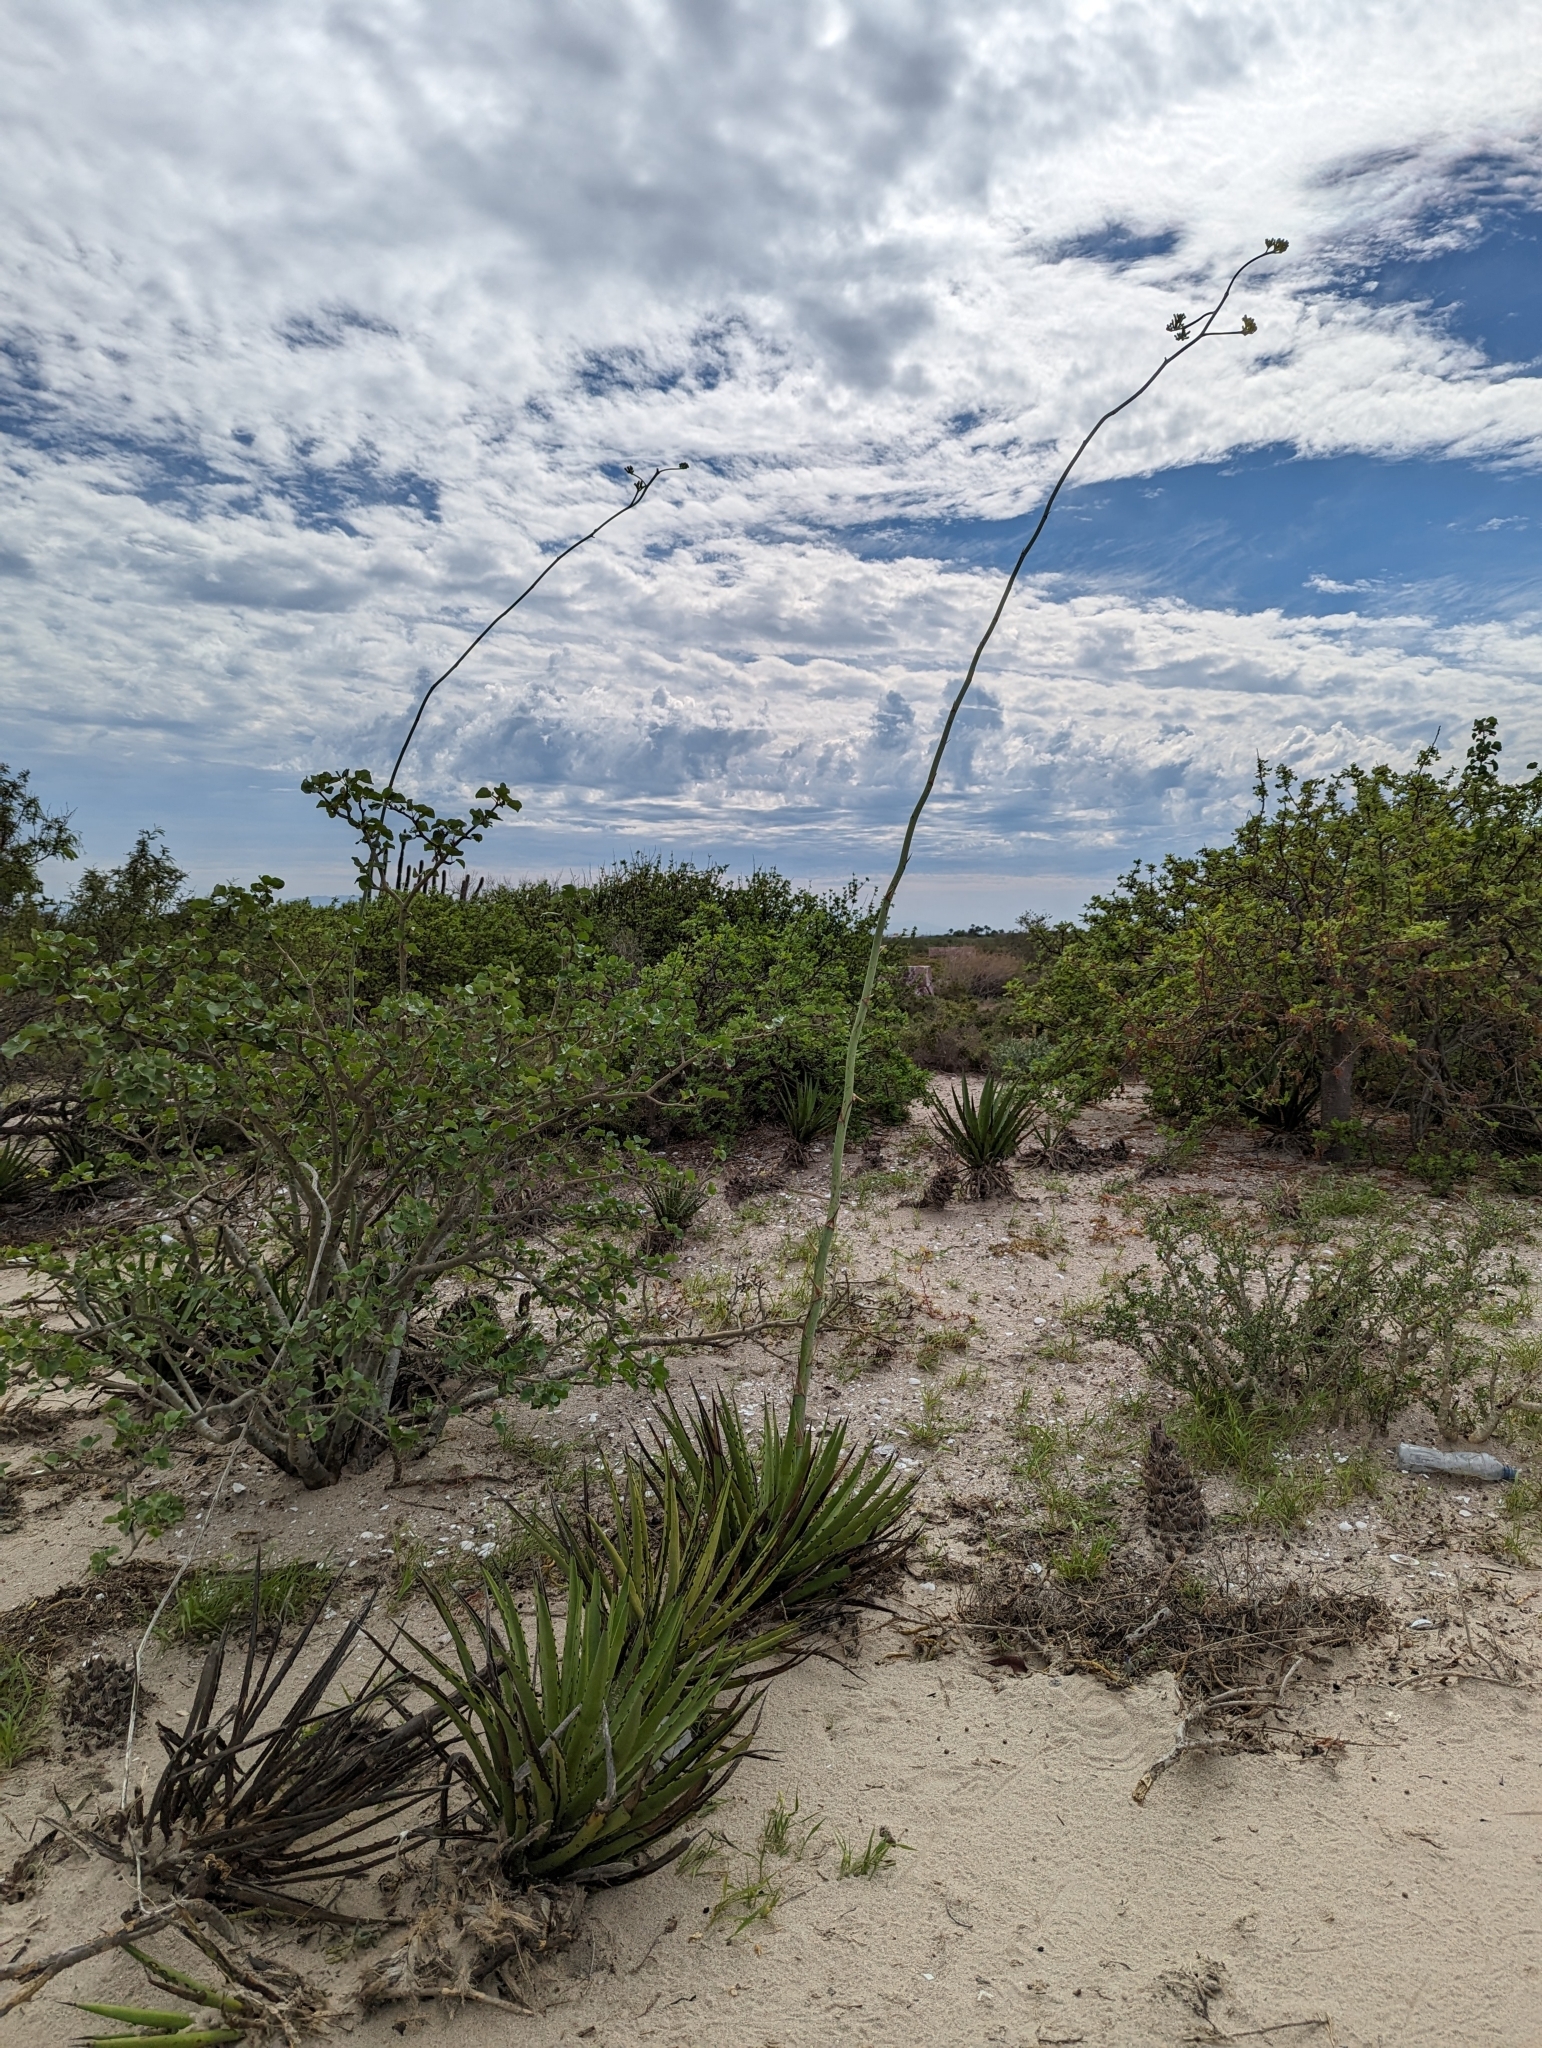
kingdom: Plantae
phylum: Tracheophyta
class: Liliopsida
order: Asparagales
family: Asparagaceae
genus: Agave
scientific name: Agave datylio
